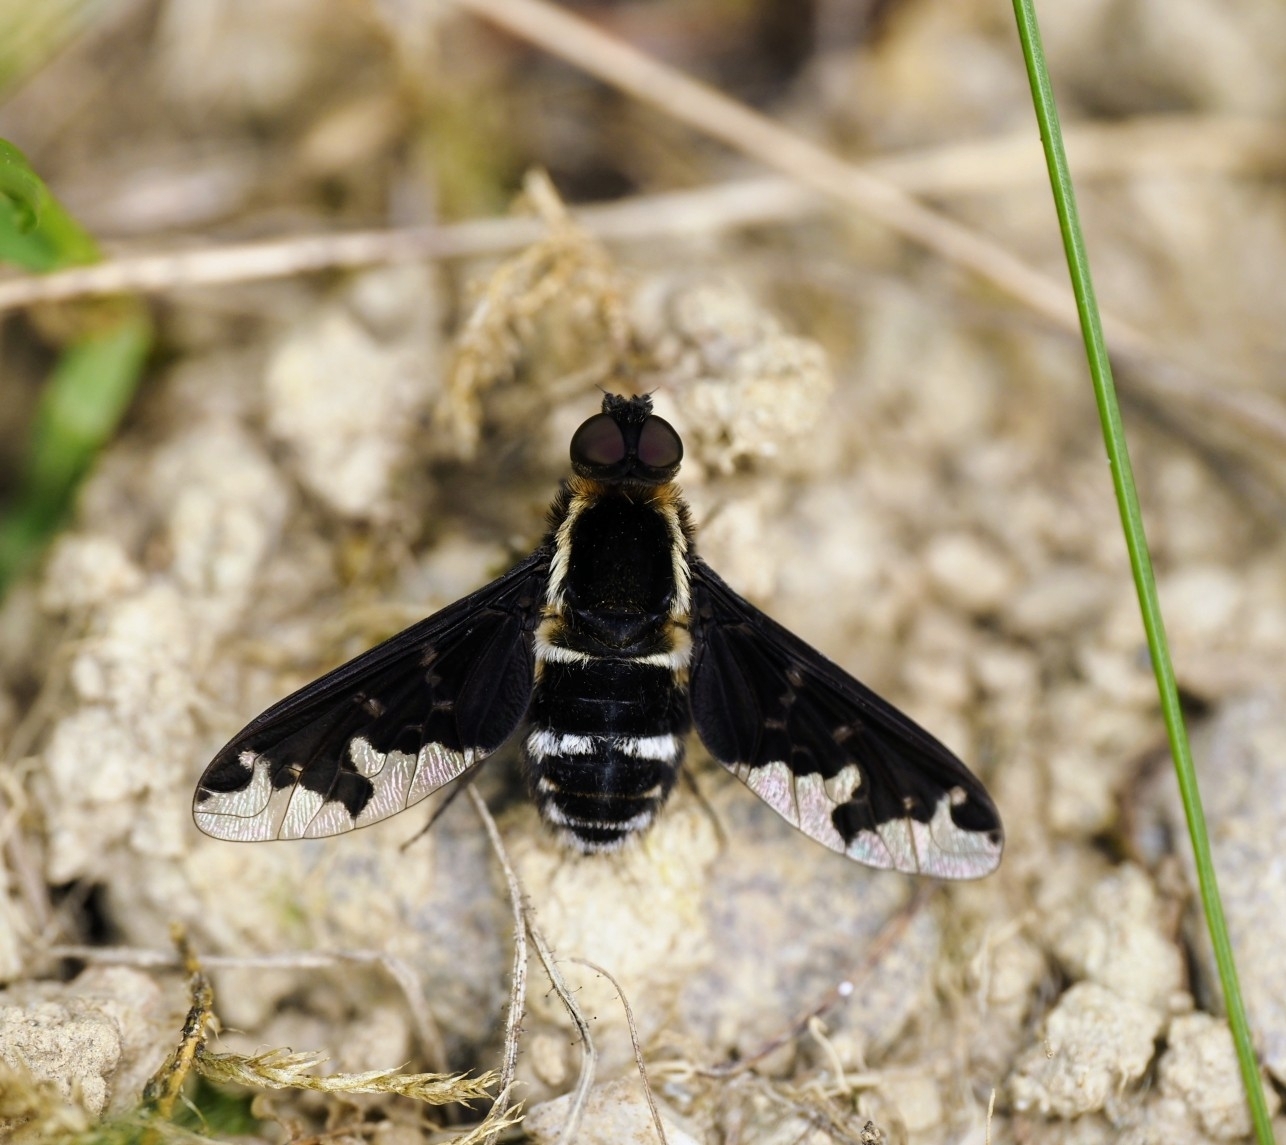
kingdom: Animalia
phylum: Arthropoda
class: Insecta
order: Diptera
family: Bombyliidae
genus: Hemipenthes
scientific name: Hemipenthes maura
